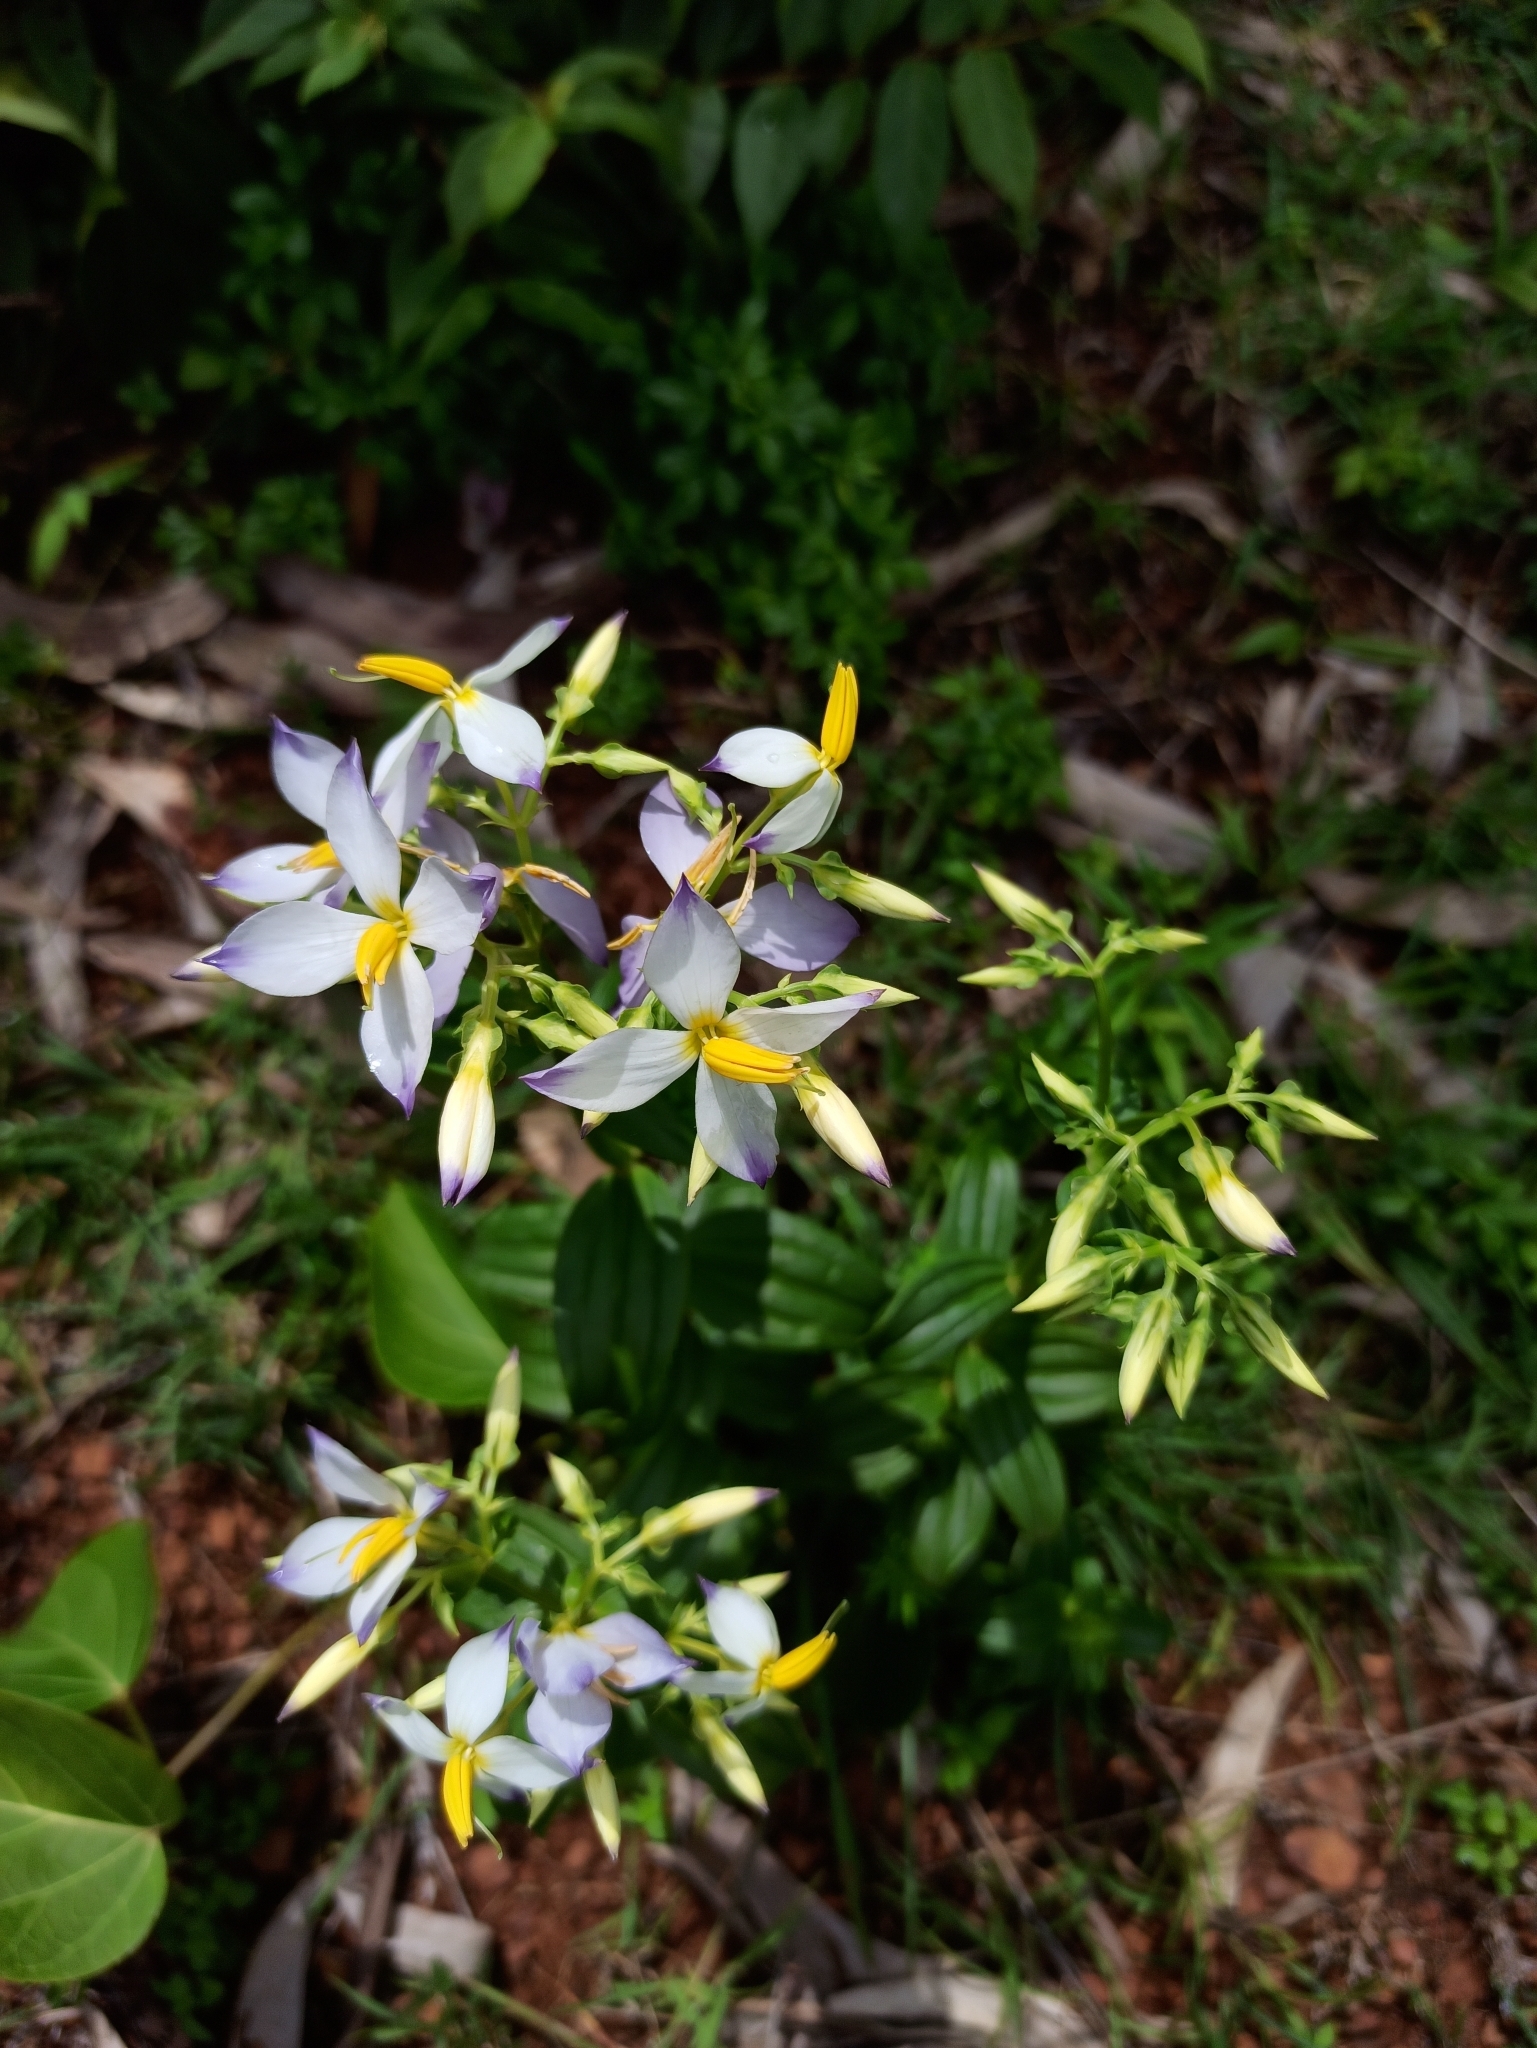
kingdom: Plantae
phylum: Tracheophyta
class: Magnoliopsida
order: Gentianales
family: Gentianaceae
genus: Exacum
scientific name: Exacum tetragonum
